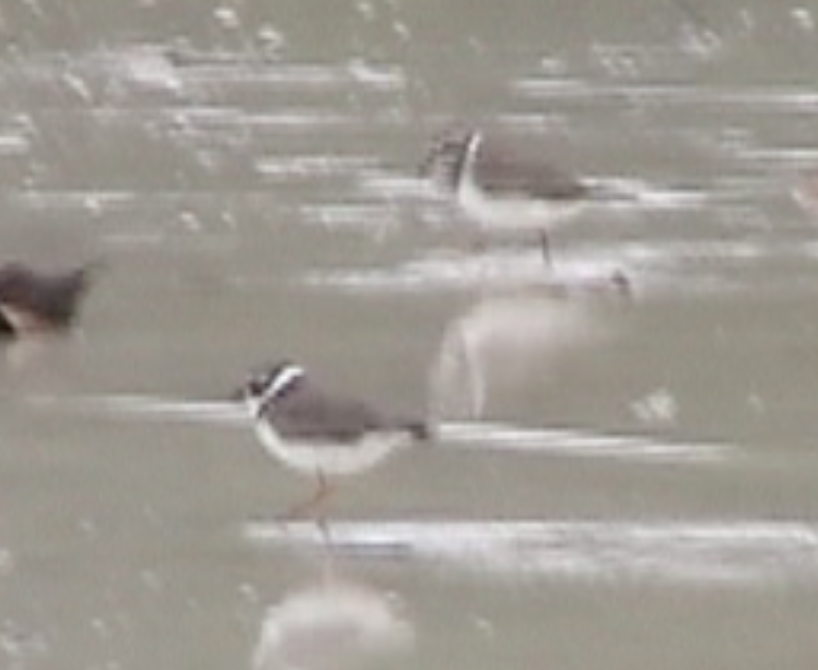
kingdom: Animalia
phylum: Chordata
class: Aves
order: Charadriiformes
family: Charadriidae
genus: Charadrius
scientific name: Charadrius semipalmatus
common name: Semipalmated plover
